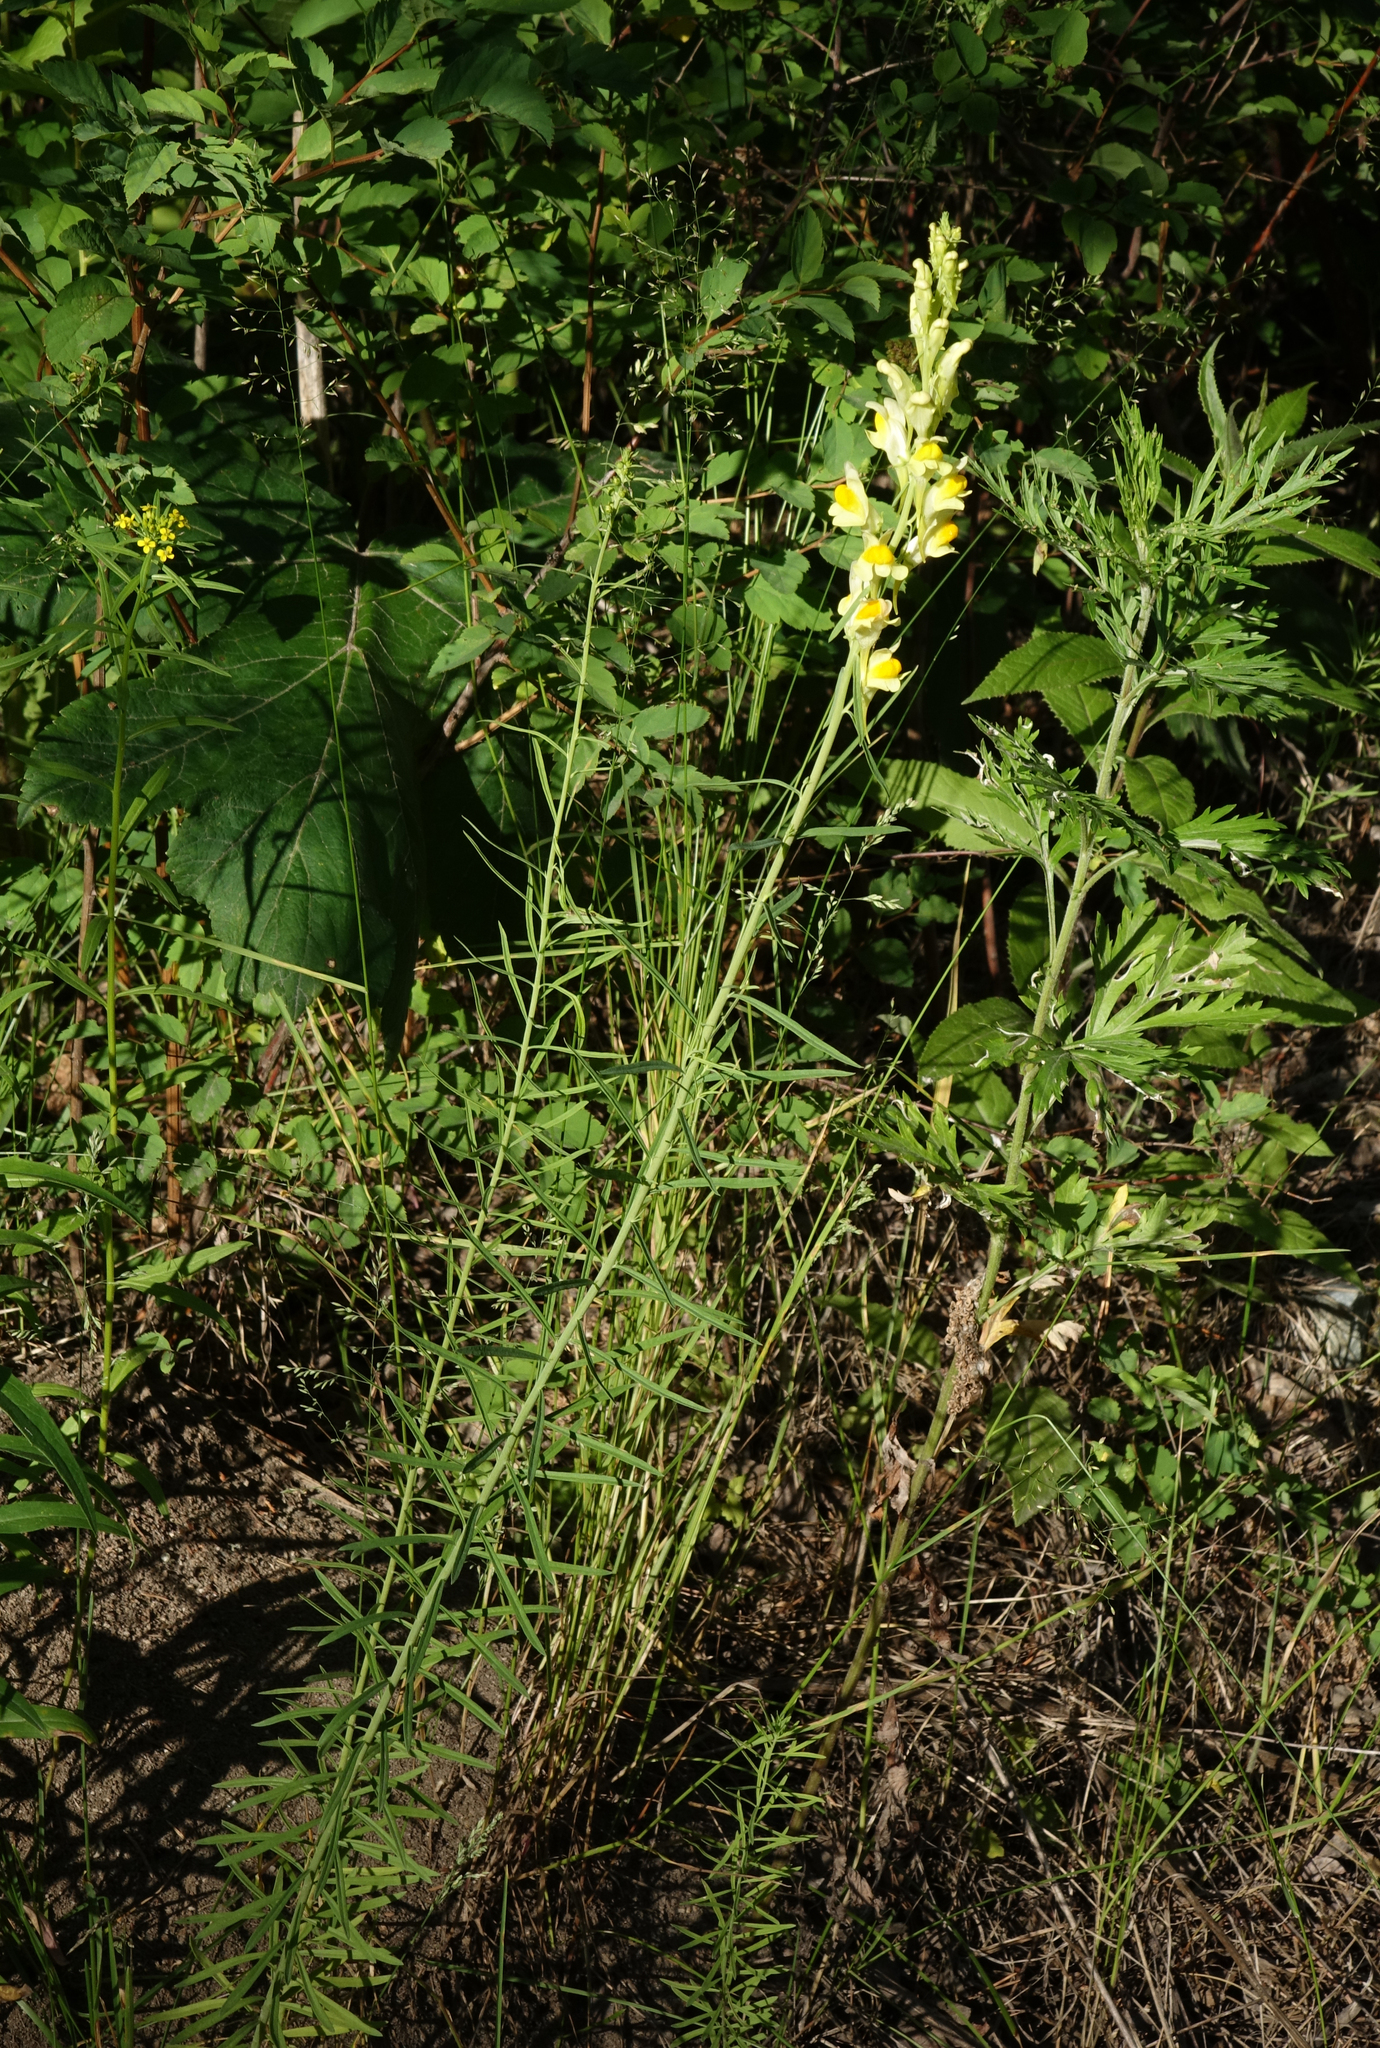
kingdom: Plantae
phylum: Tracheophyta
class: Magnoliopsida
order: Lamiales
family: Plantaginaceae
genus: Linaria
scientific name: Linaria vulgaris
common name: Butter and eggs
